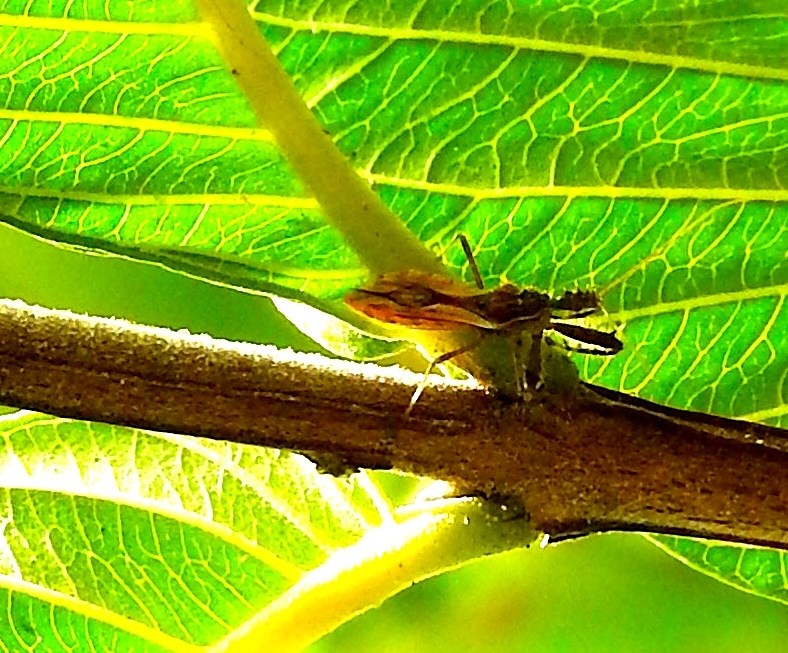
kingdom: Animalia
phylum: Arthropoda
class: Insecta
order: Hemiptera
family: Reduviidae
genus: Sinea
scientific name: Sinea
